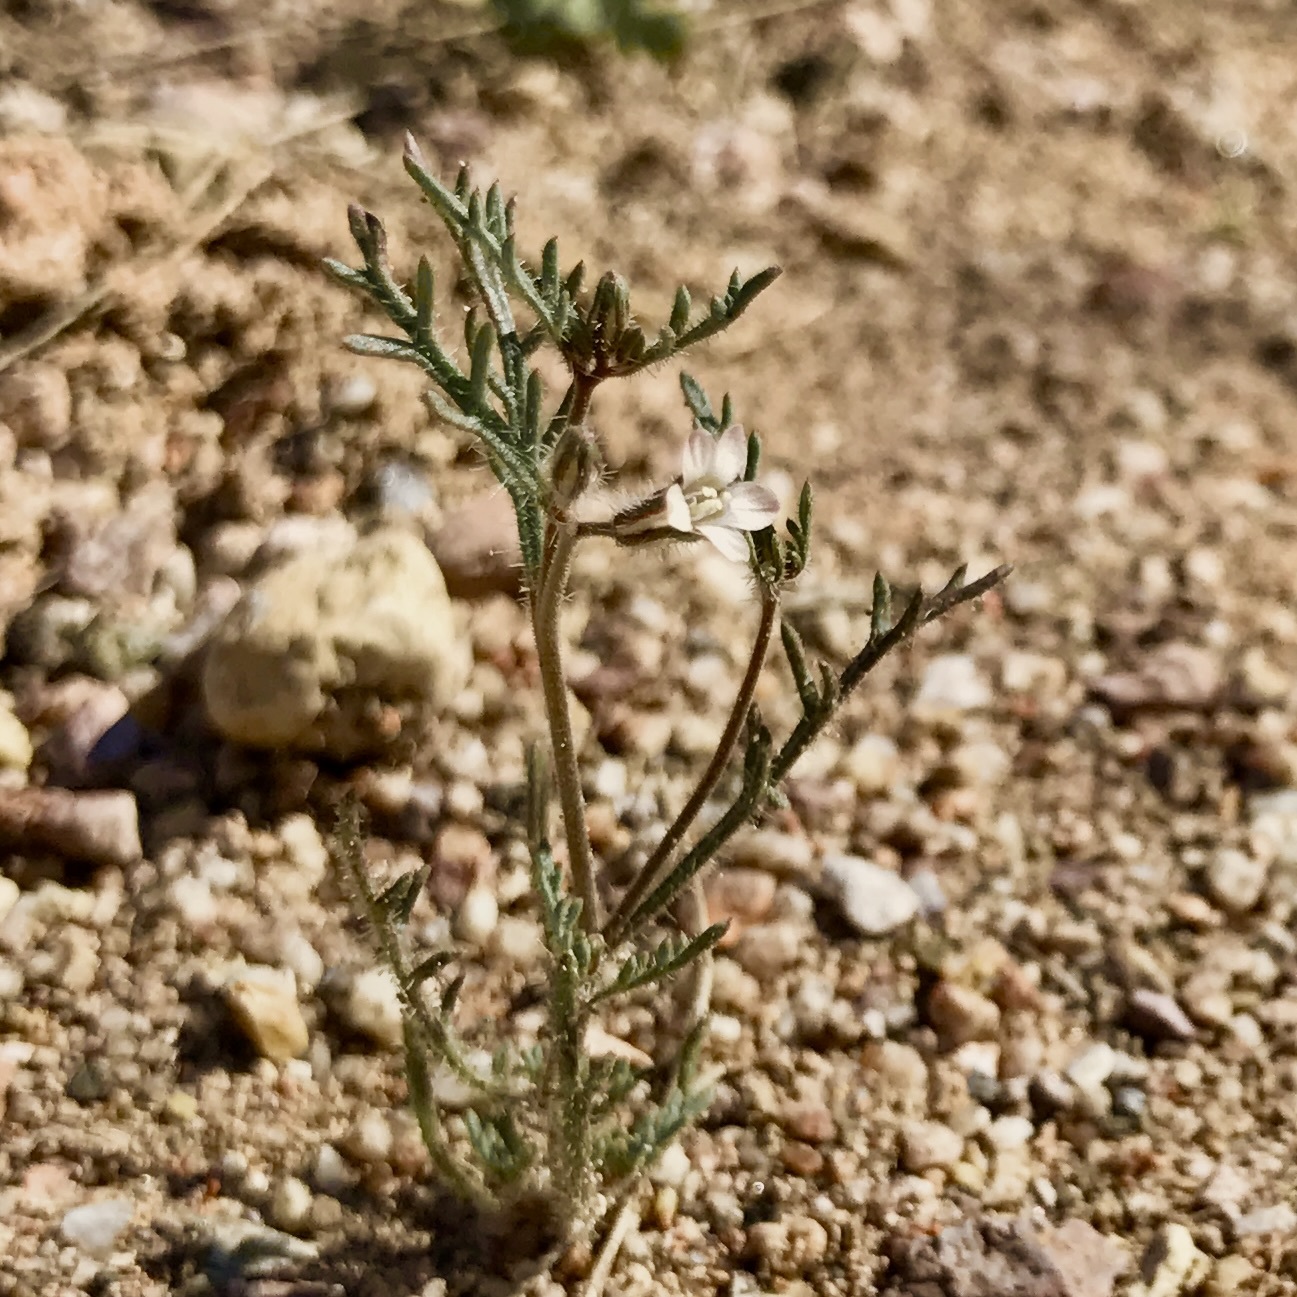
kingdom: Plantae
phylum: Tracheophyta
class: Magnoliopsida
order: Ericales
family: Polemoniaceae
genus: Dayia
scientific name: Dayia sonorae
